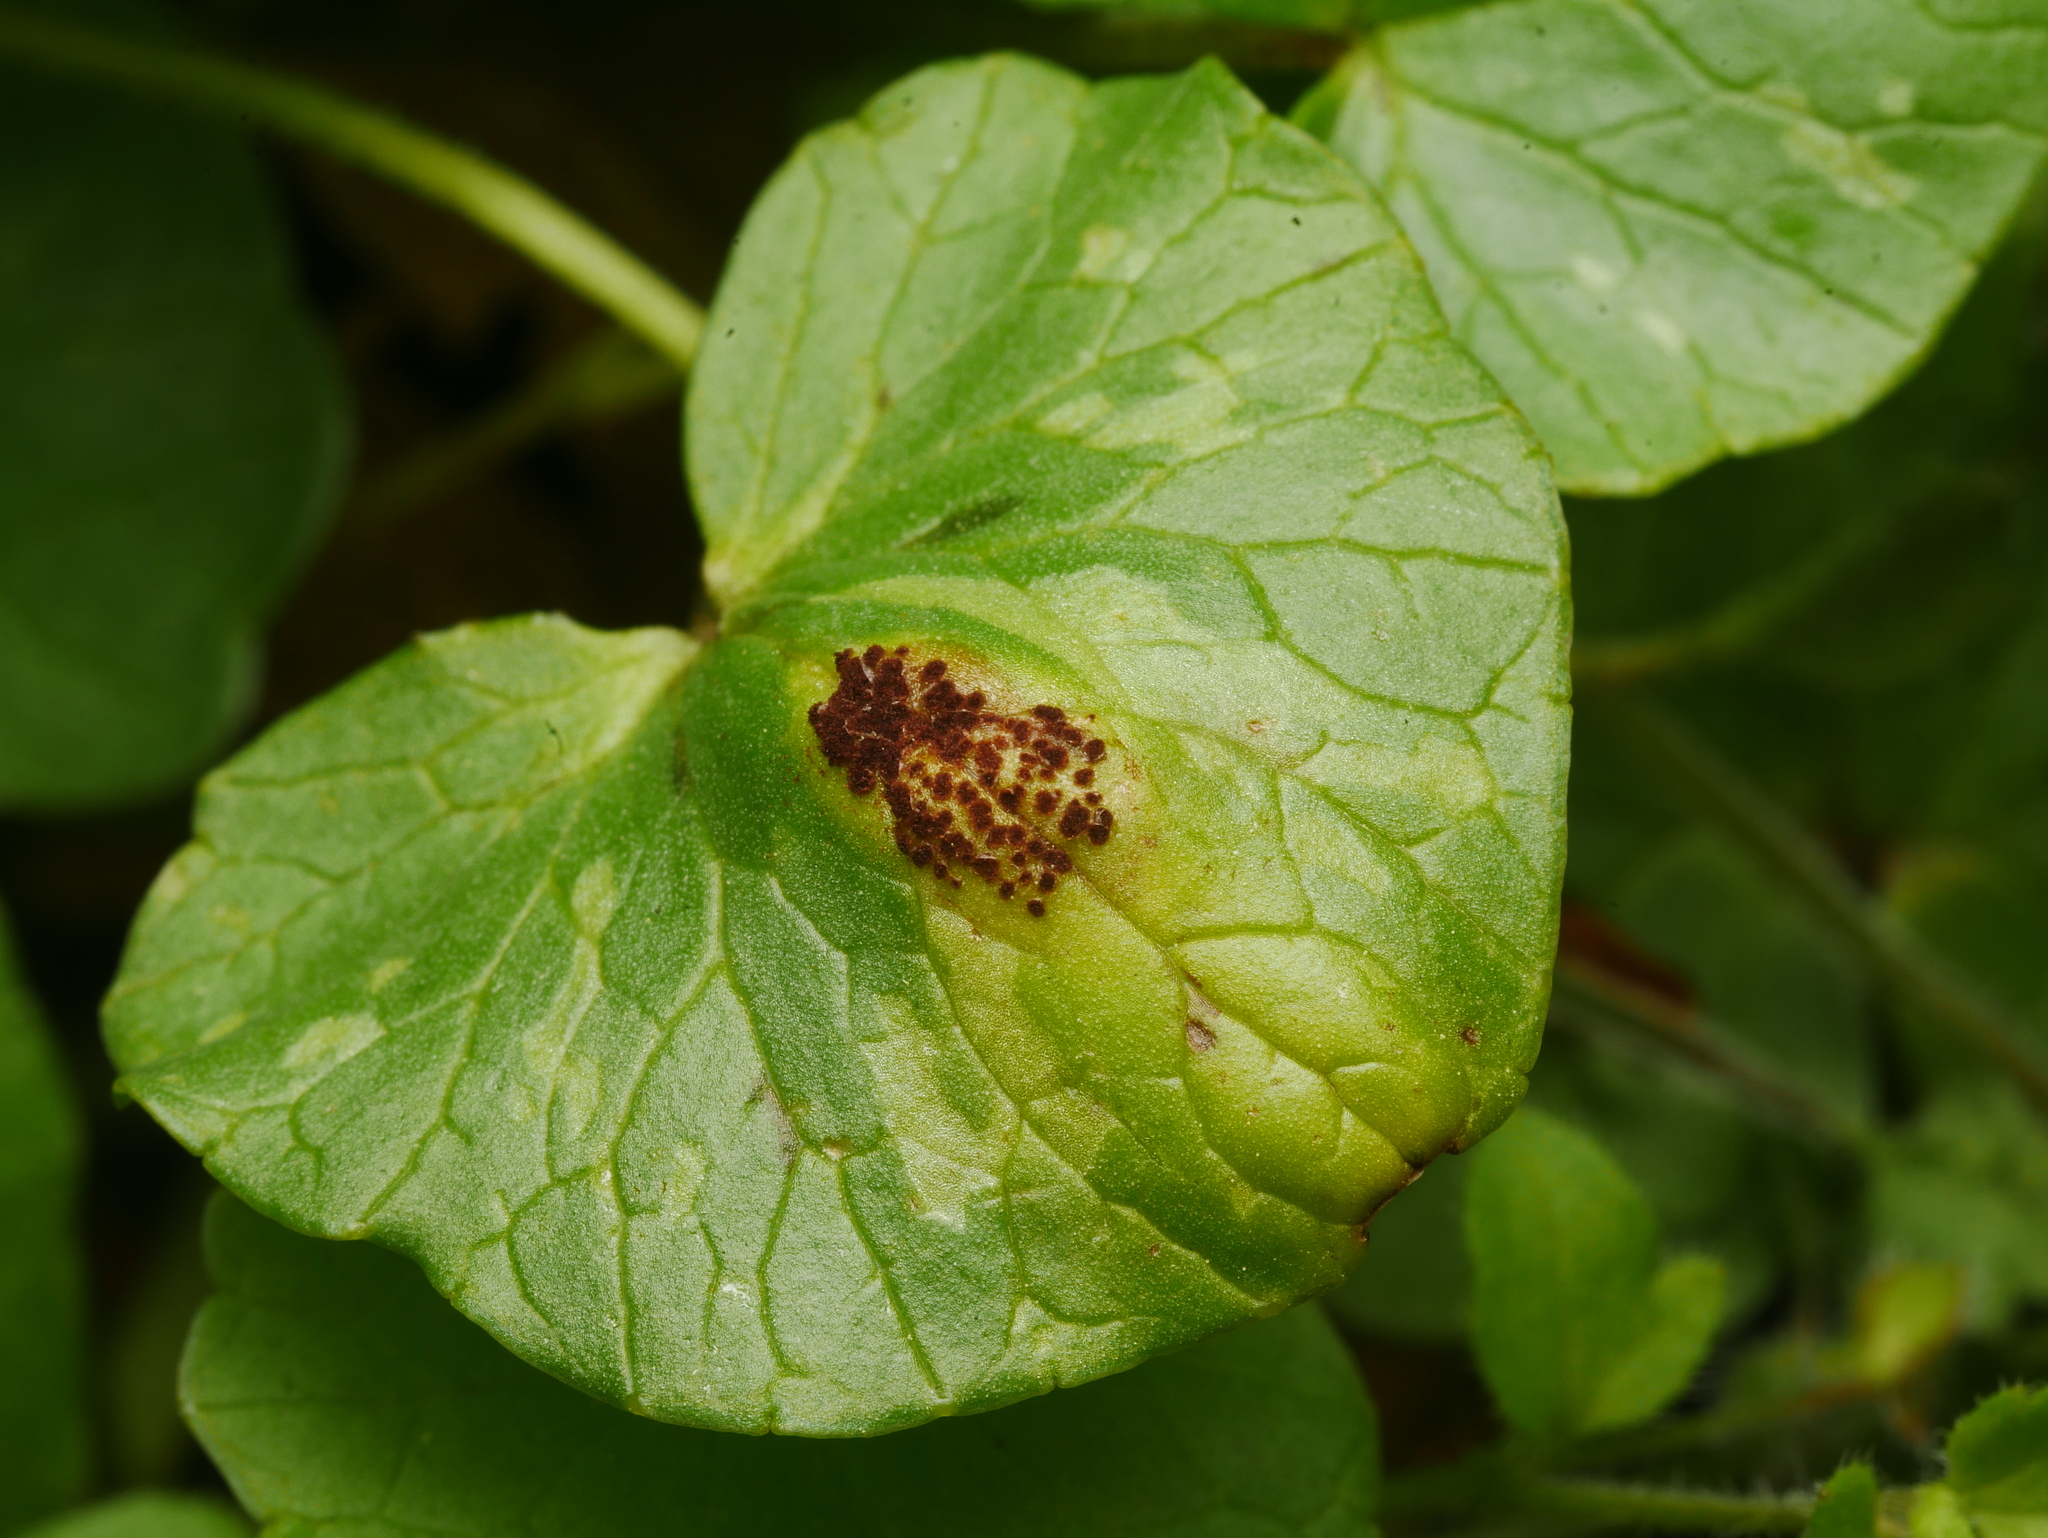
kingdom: Fungi
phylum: Basidiomycota
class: Pucciniomycetes
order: Pucciniales
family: Pucciniaceae
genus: Uromyces
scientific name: Uromyces ficariae
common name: Bitter chocolate rust
